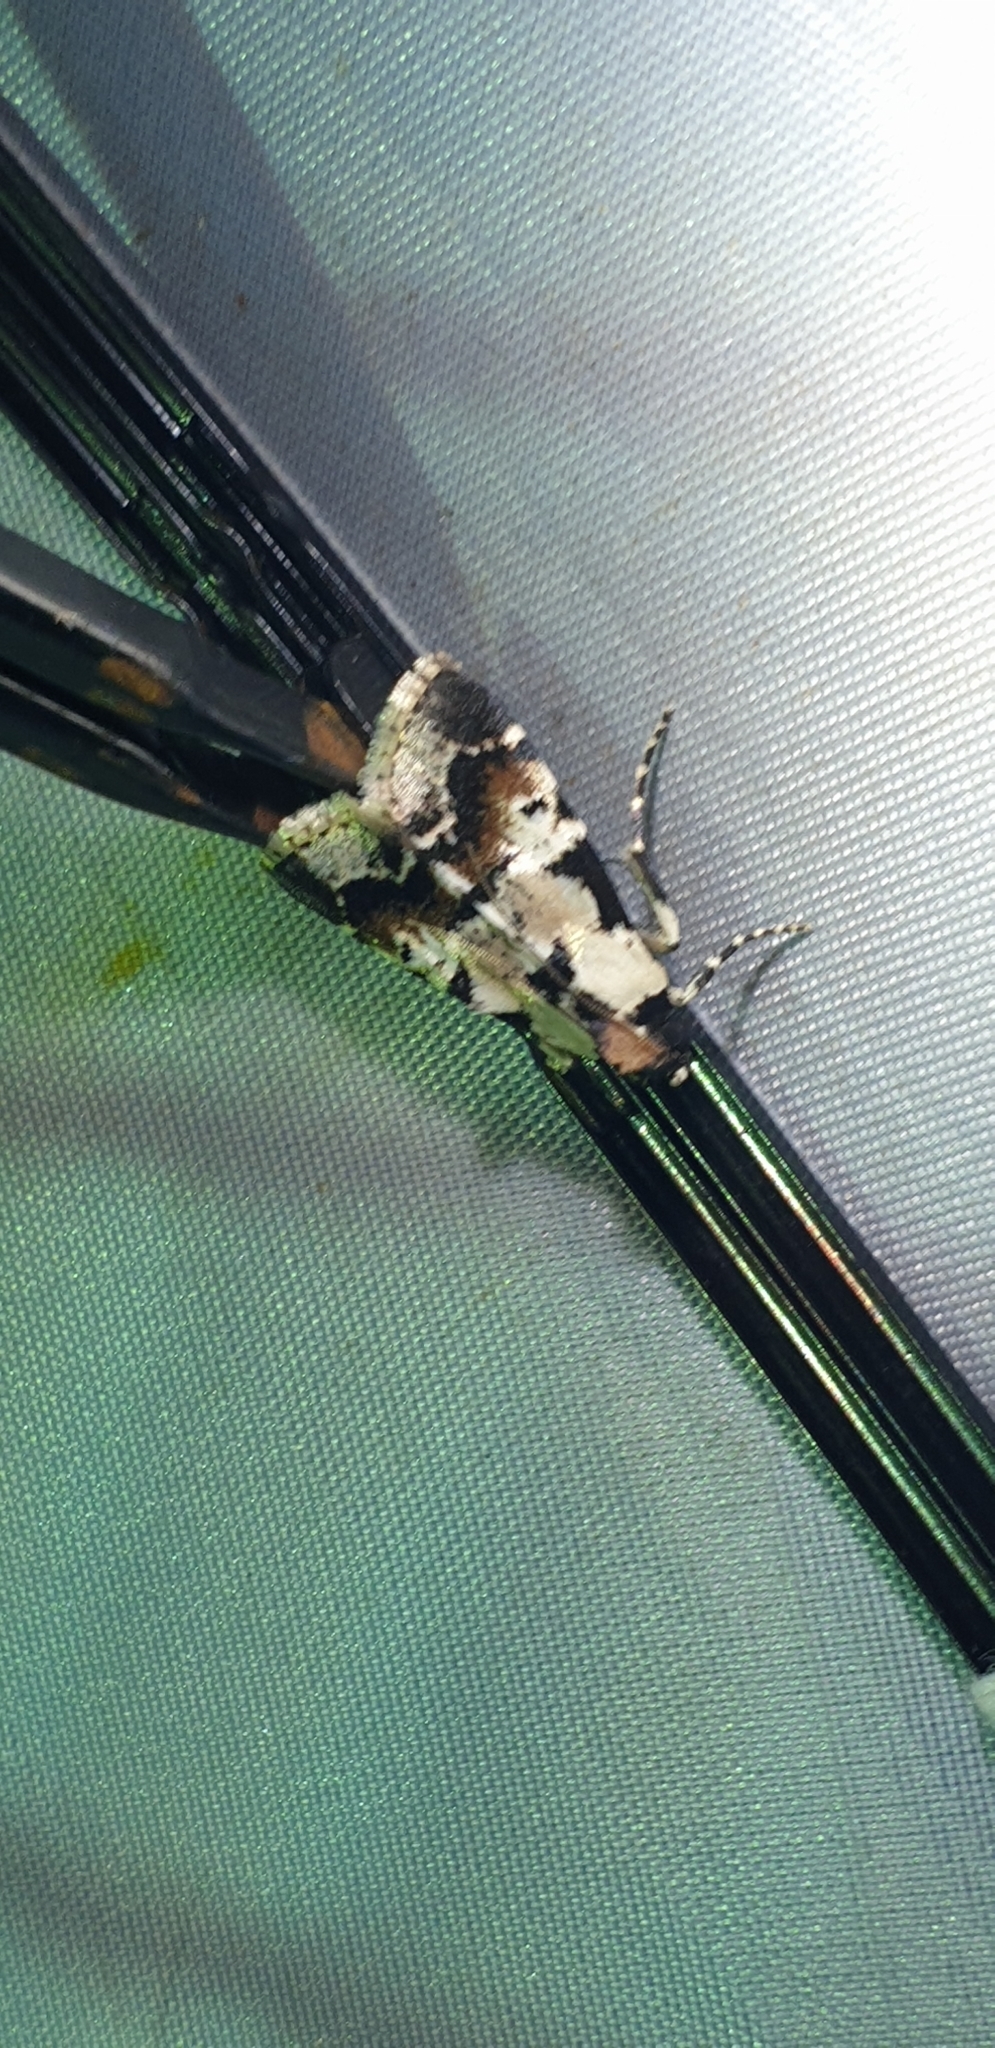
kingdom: Animalia
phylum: Arthropoda
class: Insecta
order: Lepidoptera
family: Pyralidae
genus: Orthaga
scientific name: Orthaga seminivea
